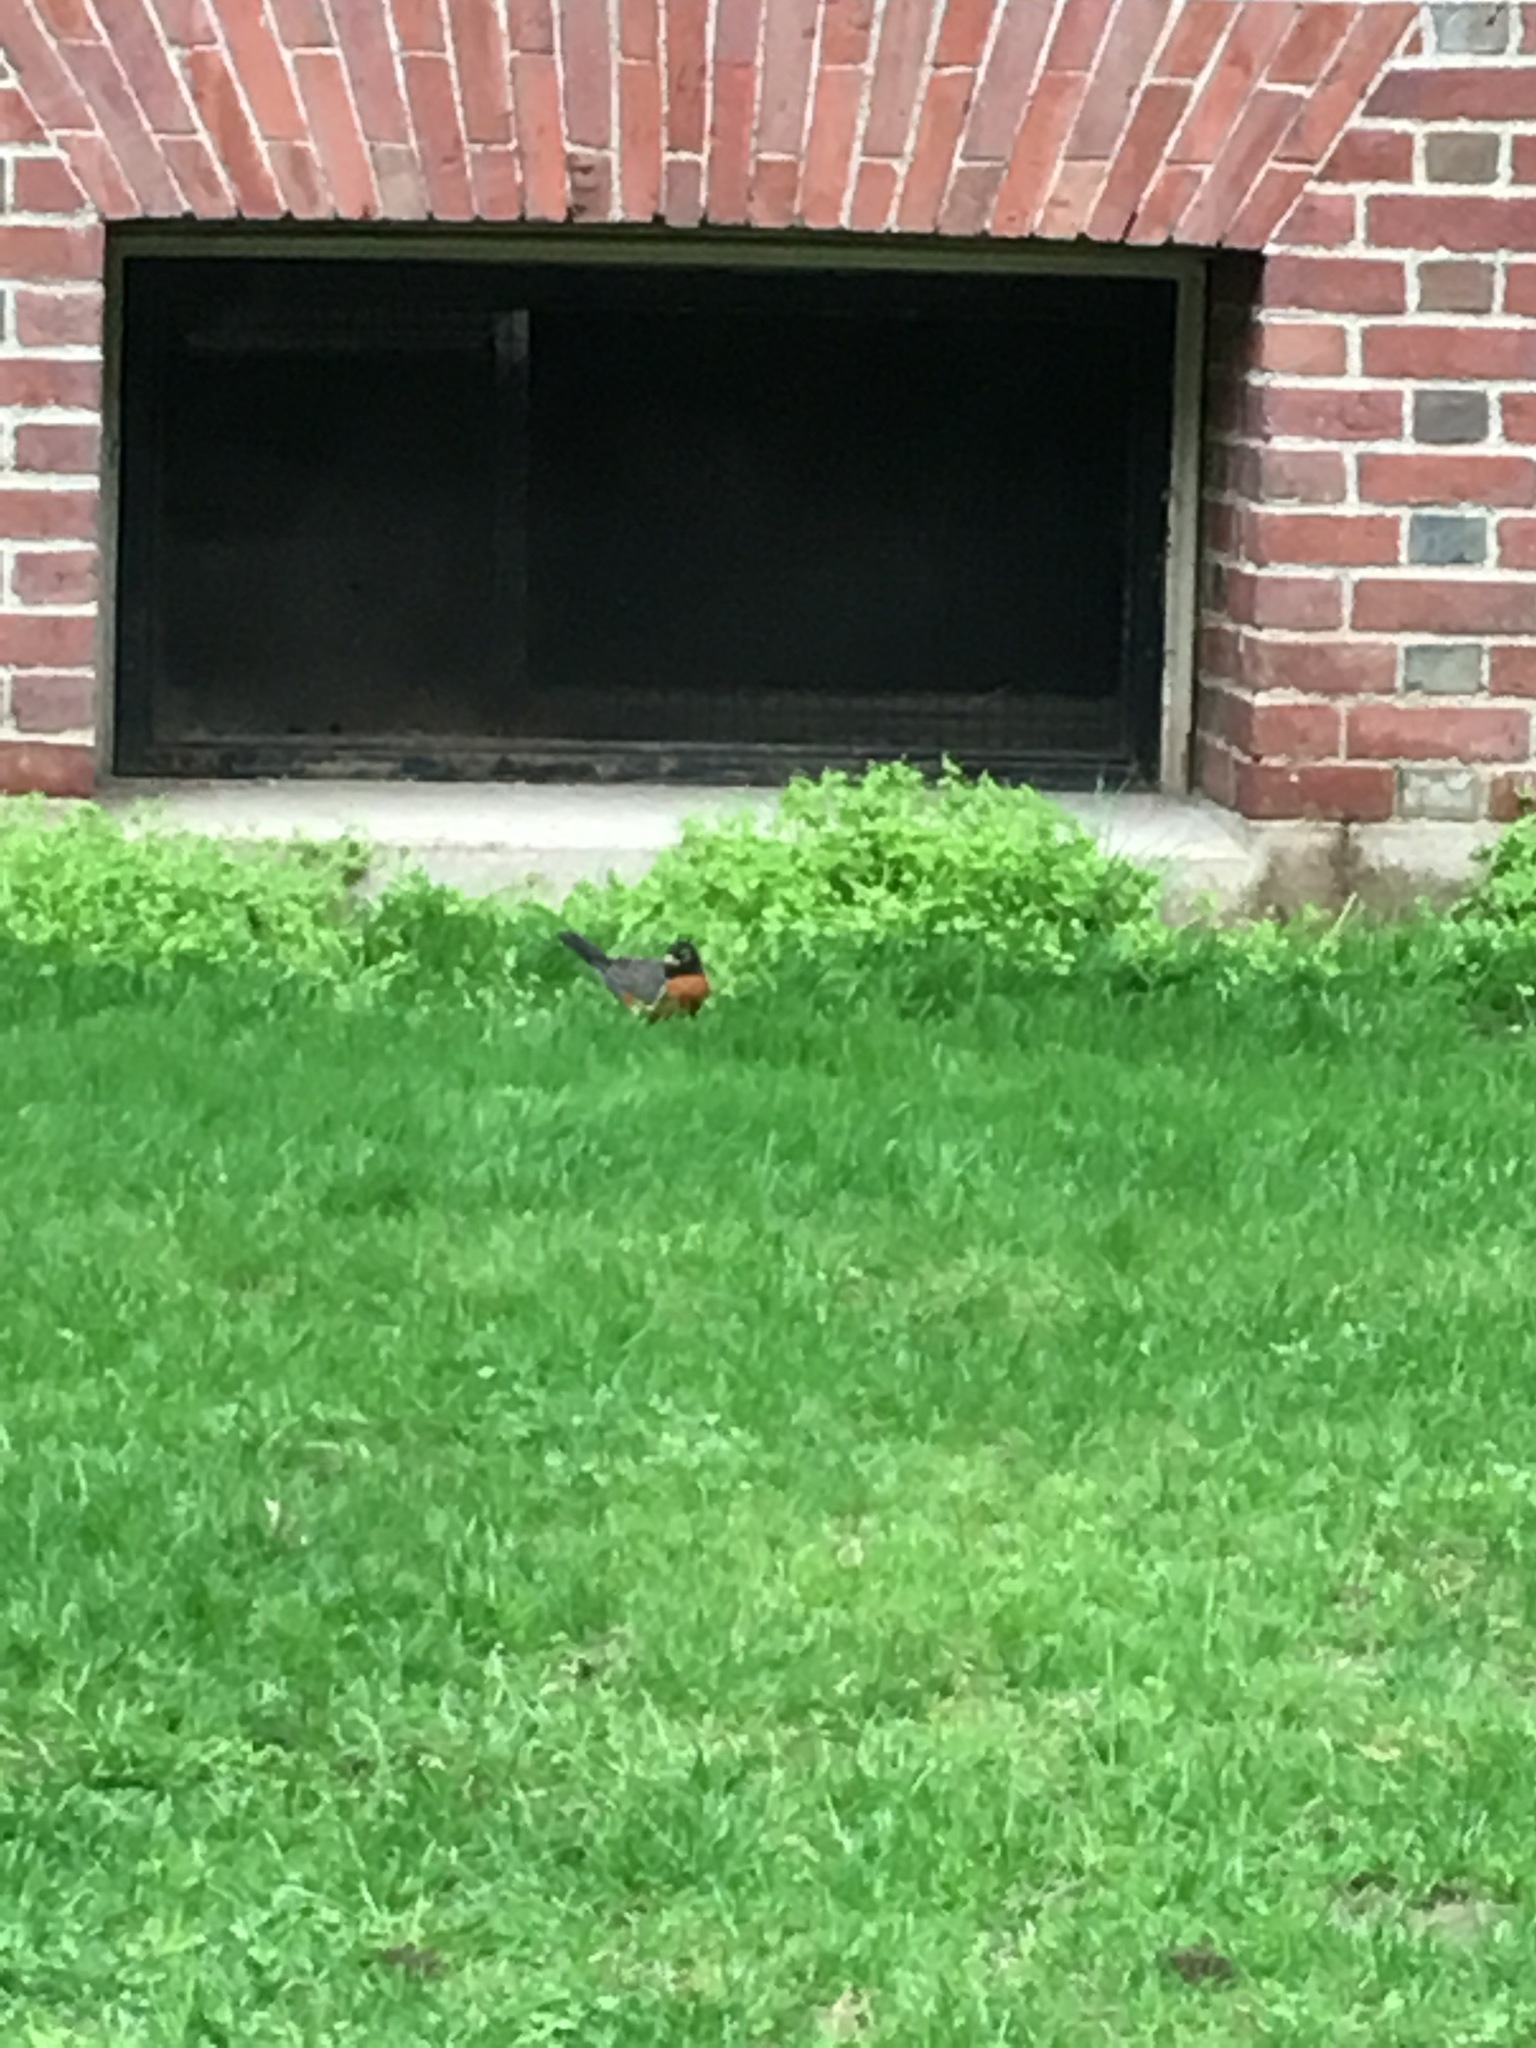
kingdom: Animalia
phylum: Chordata
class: Aves
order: Passeriformes
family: Turdidae
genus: Turdus
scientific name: Turdus migratorius
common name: American robin
